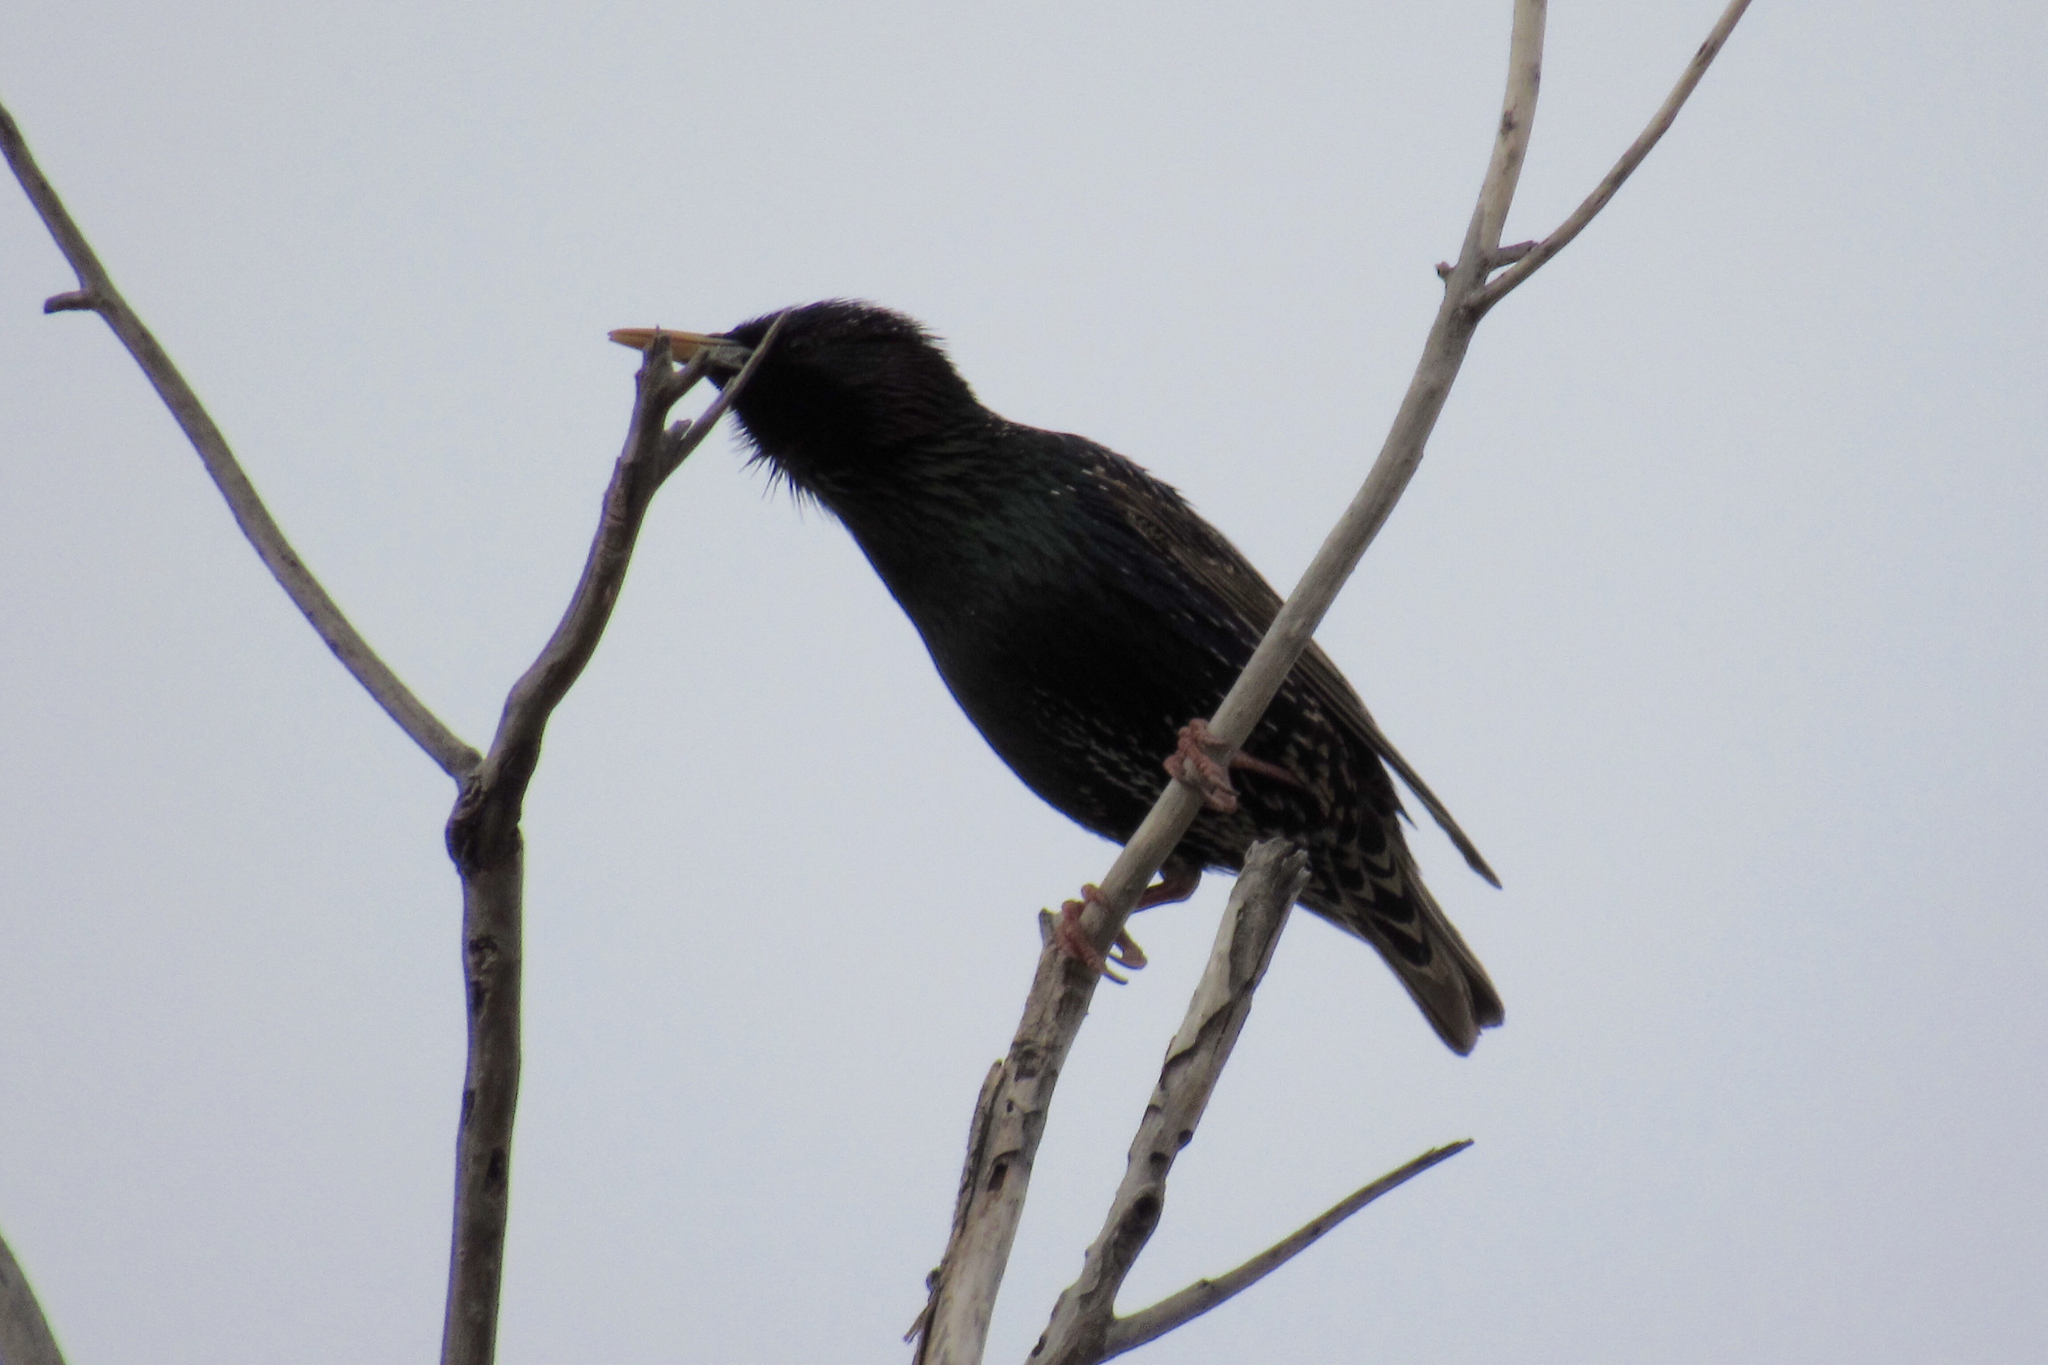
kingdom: Animalia
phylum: Chordata
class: Aves
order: Passeriformes
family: Sturnidae
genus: Sturnus
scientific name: Sturnus vulgaris
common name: Common starling
